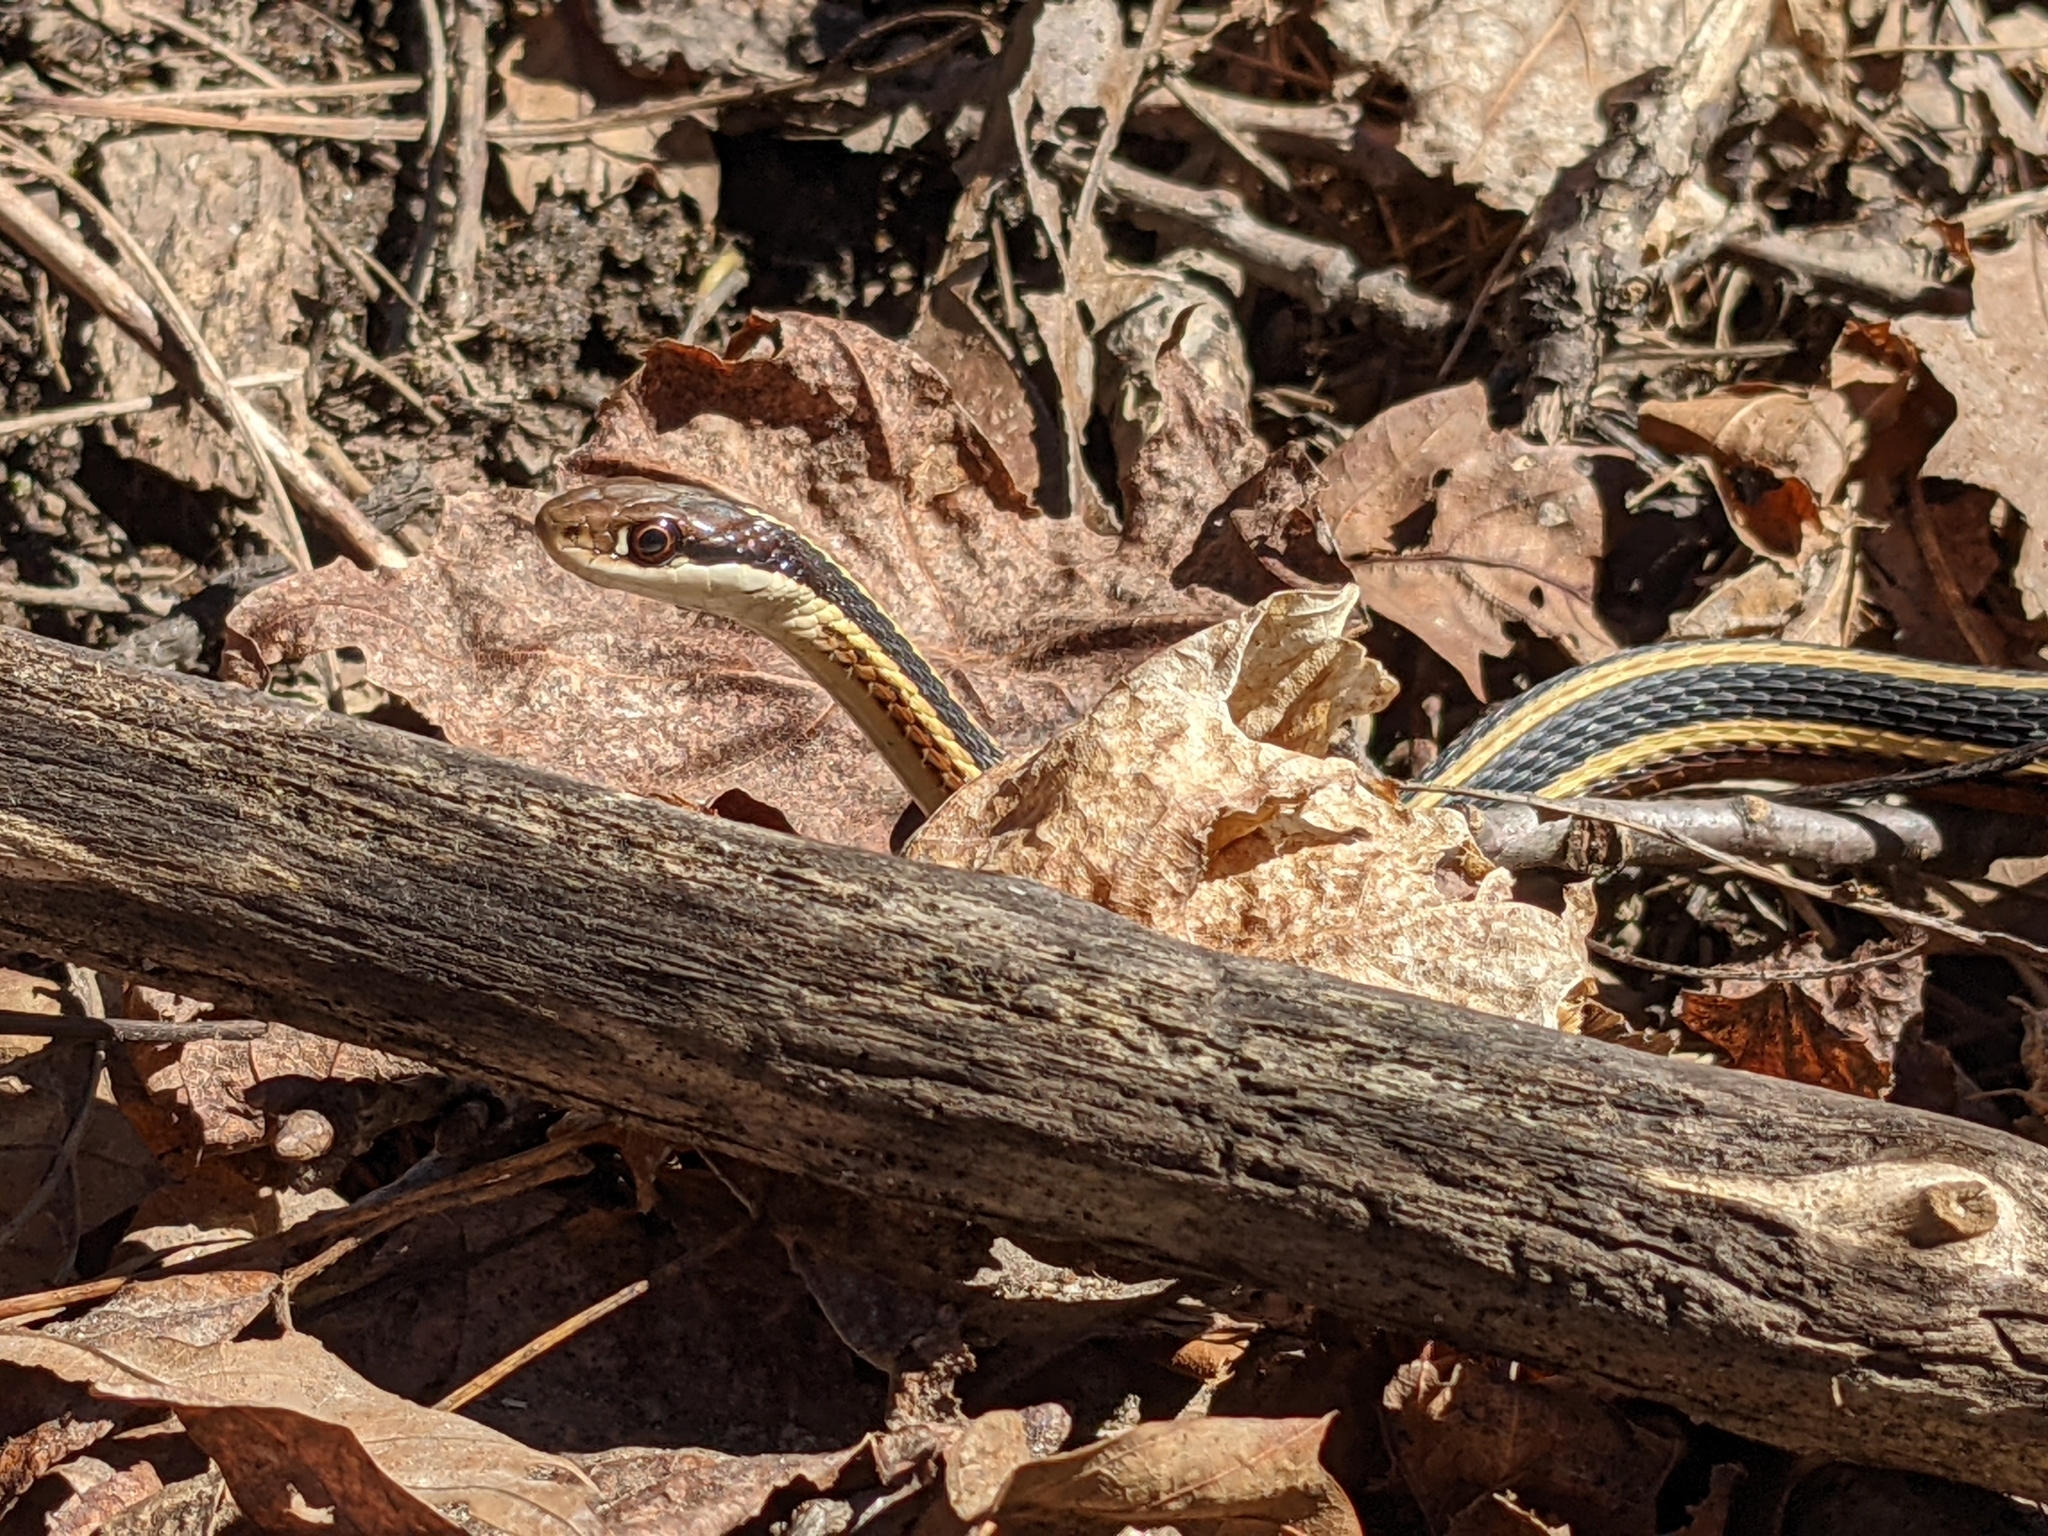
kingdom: Animalia
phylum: Chordata
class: Squamata
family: Colubridae
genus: Thamnophis
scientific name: Thamnophis saurita
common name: Eastern ribbonsnake
